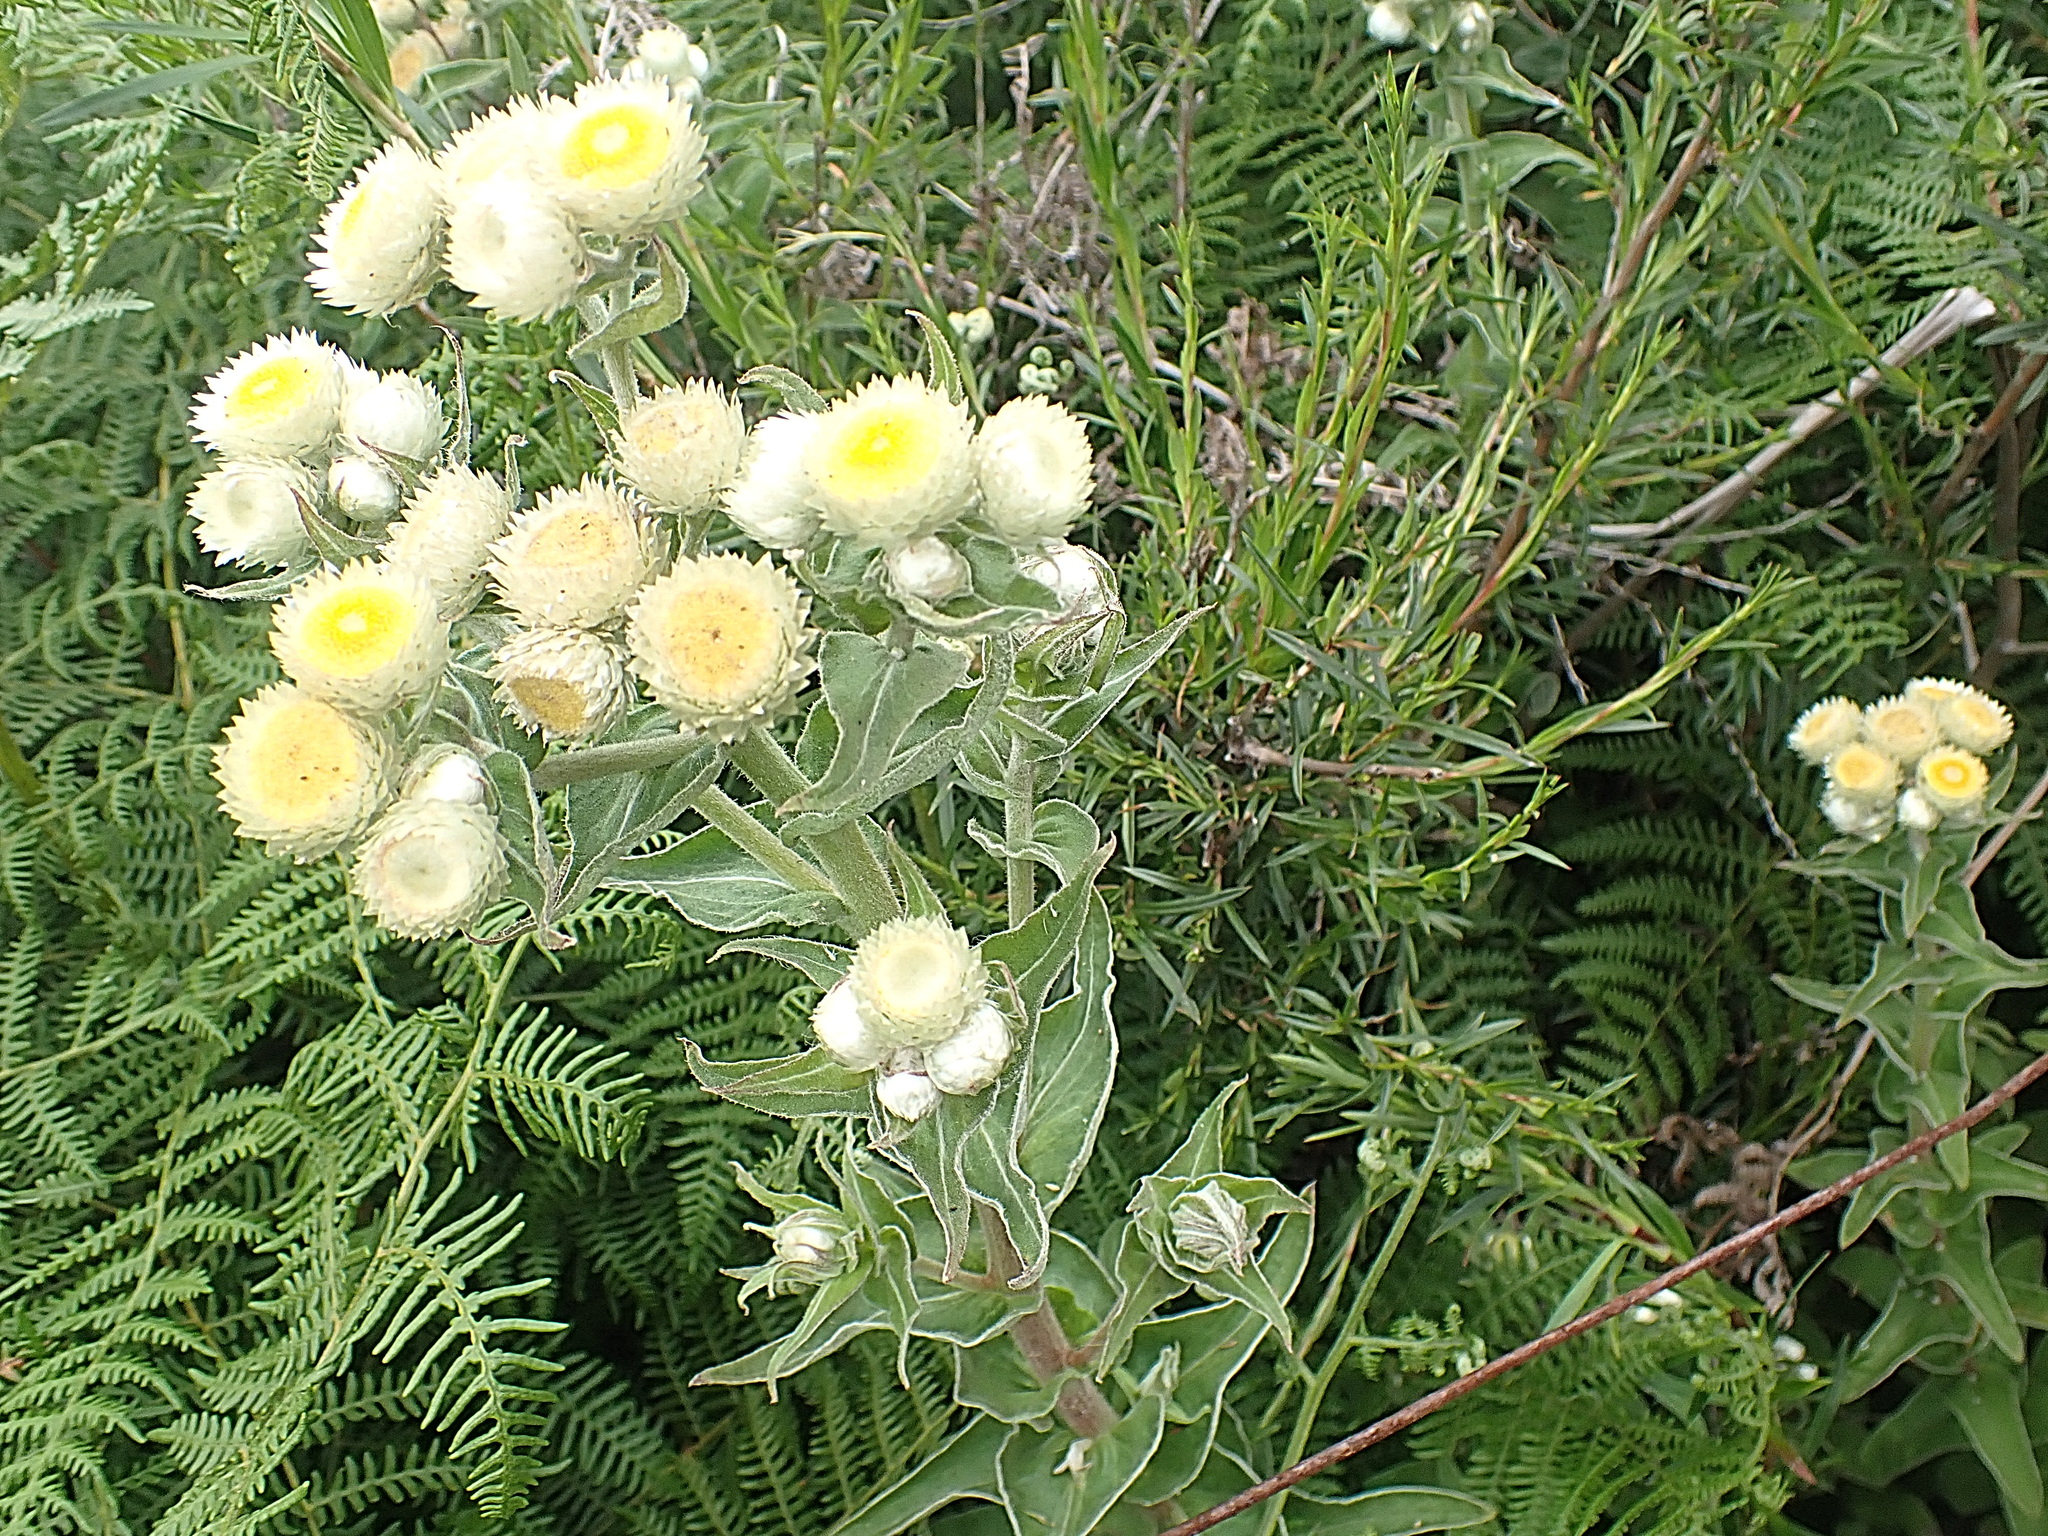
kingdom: Plantae
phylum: Tracheophyta
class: Magnoliopsida
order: Asterales
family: Asteraceae
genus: Helichrysum
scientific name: Helichrysum foetidum
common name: Stinking everlasting
